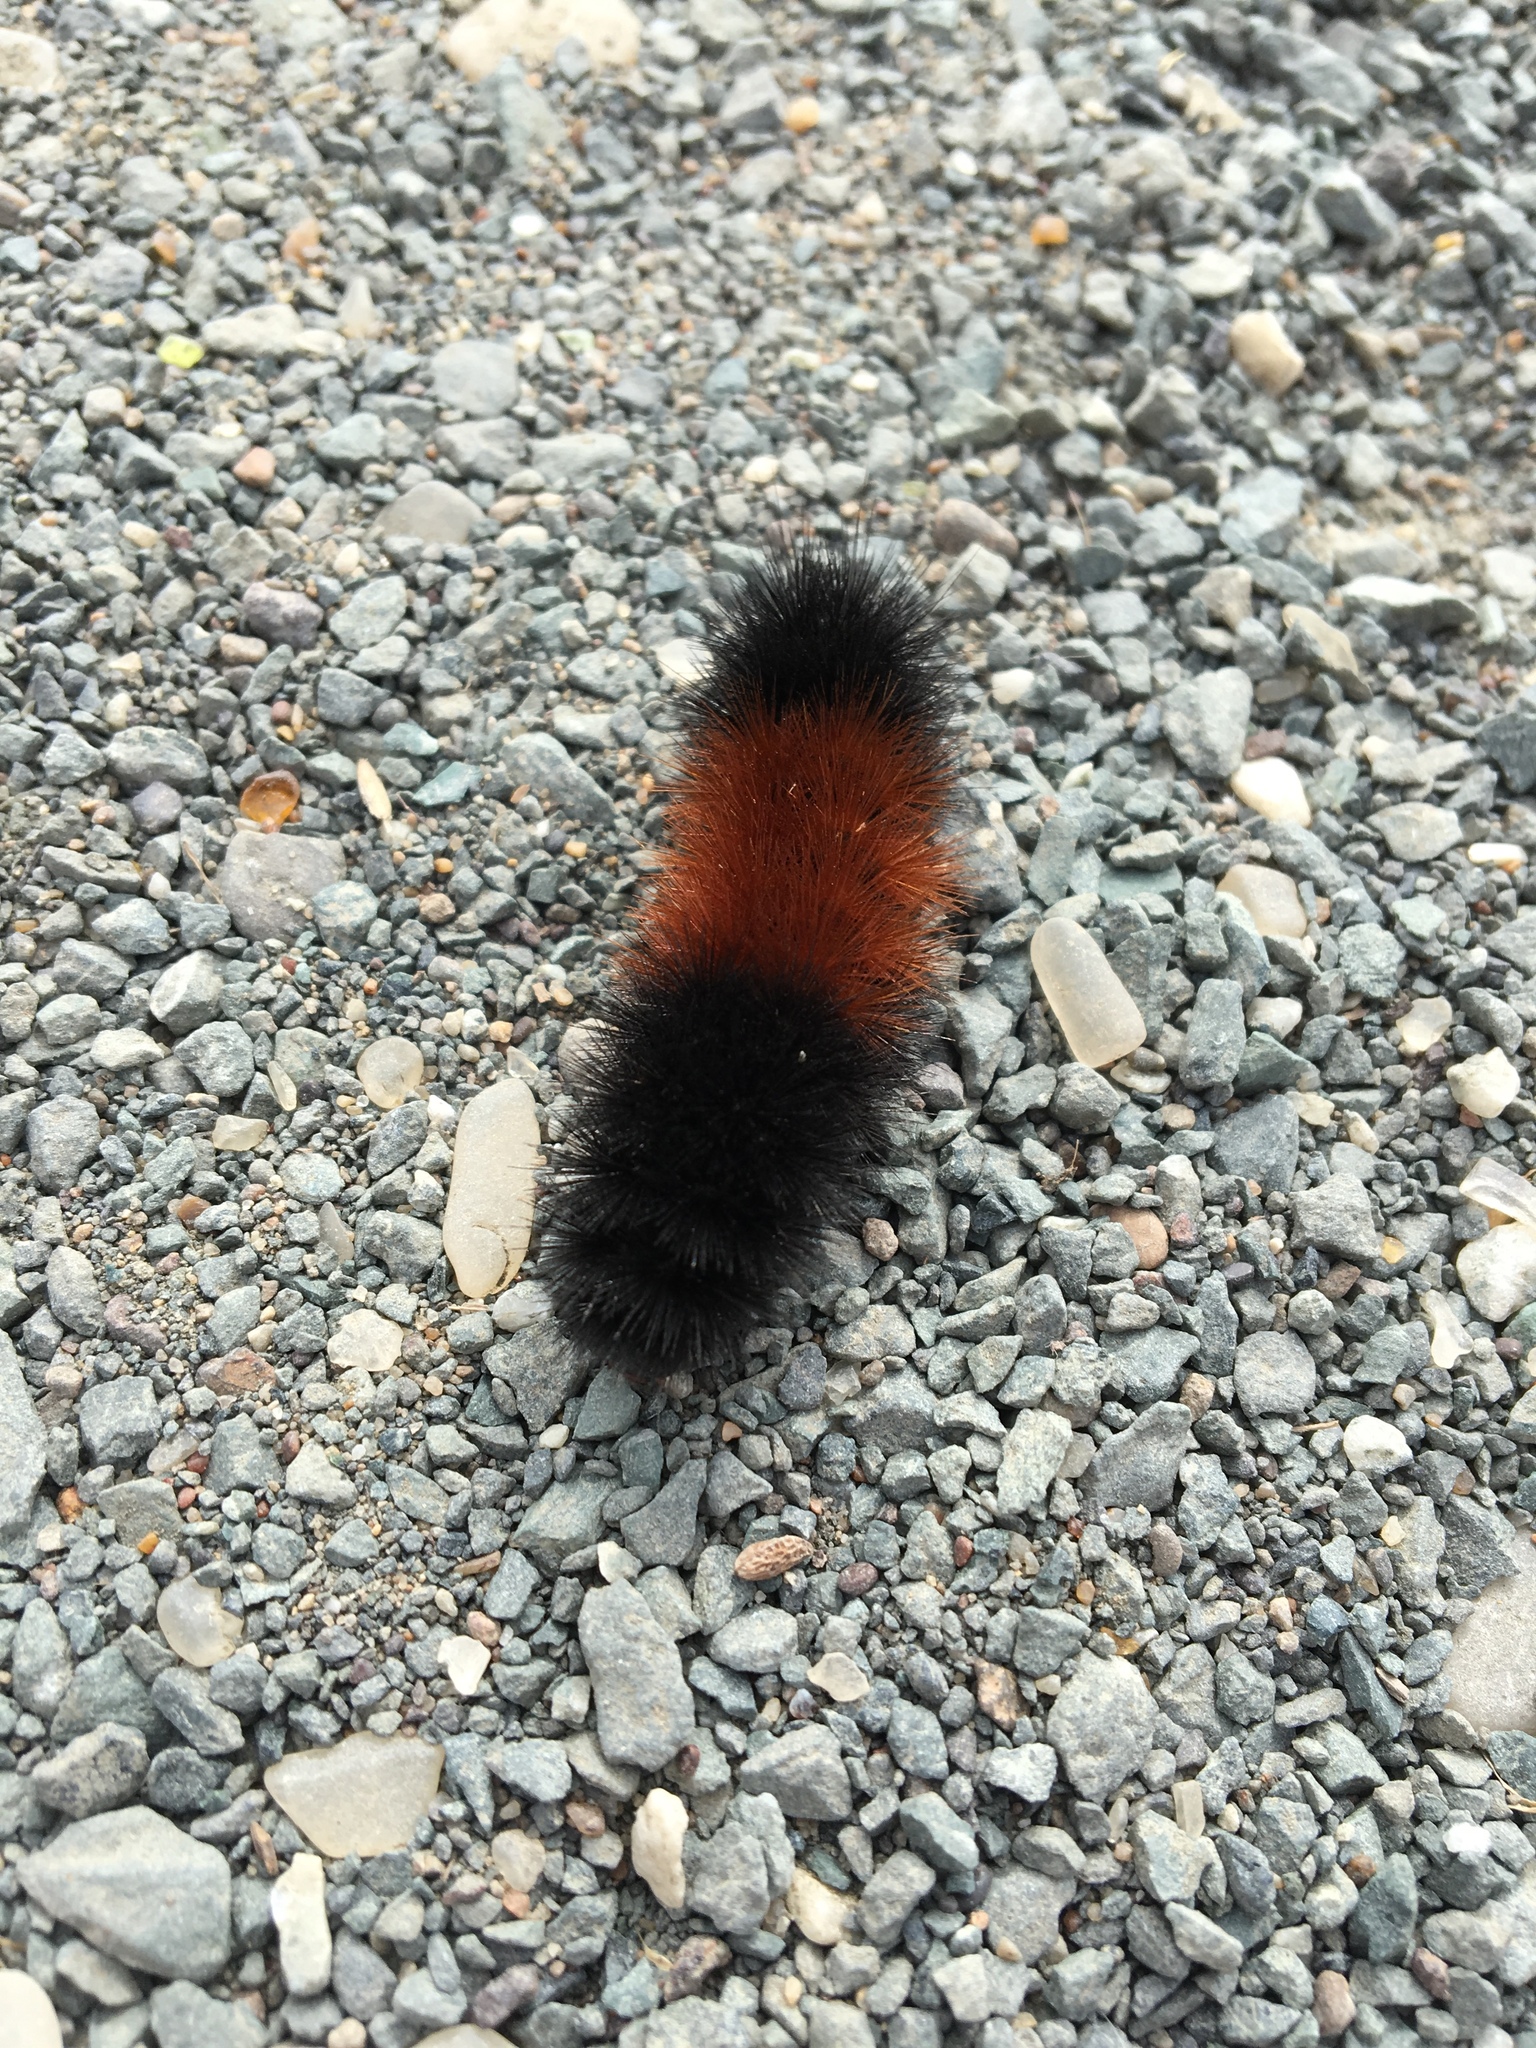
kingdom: Animalia
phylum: Arthropoda
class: Insecta
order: Lepidoptera
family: Erebidae
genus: Pyrrharctia
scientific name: Pyrrharctia isabella
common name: Isabella tiger moth
